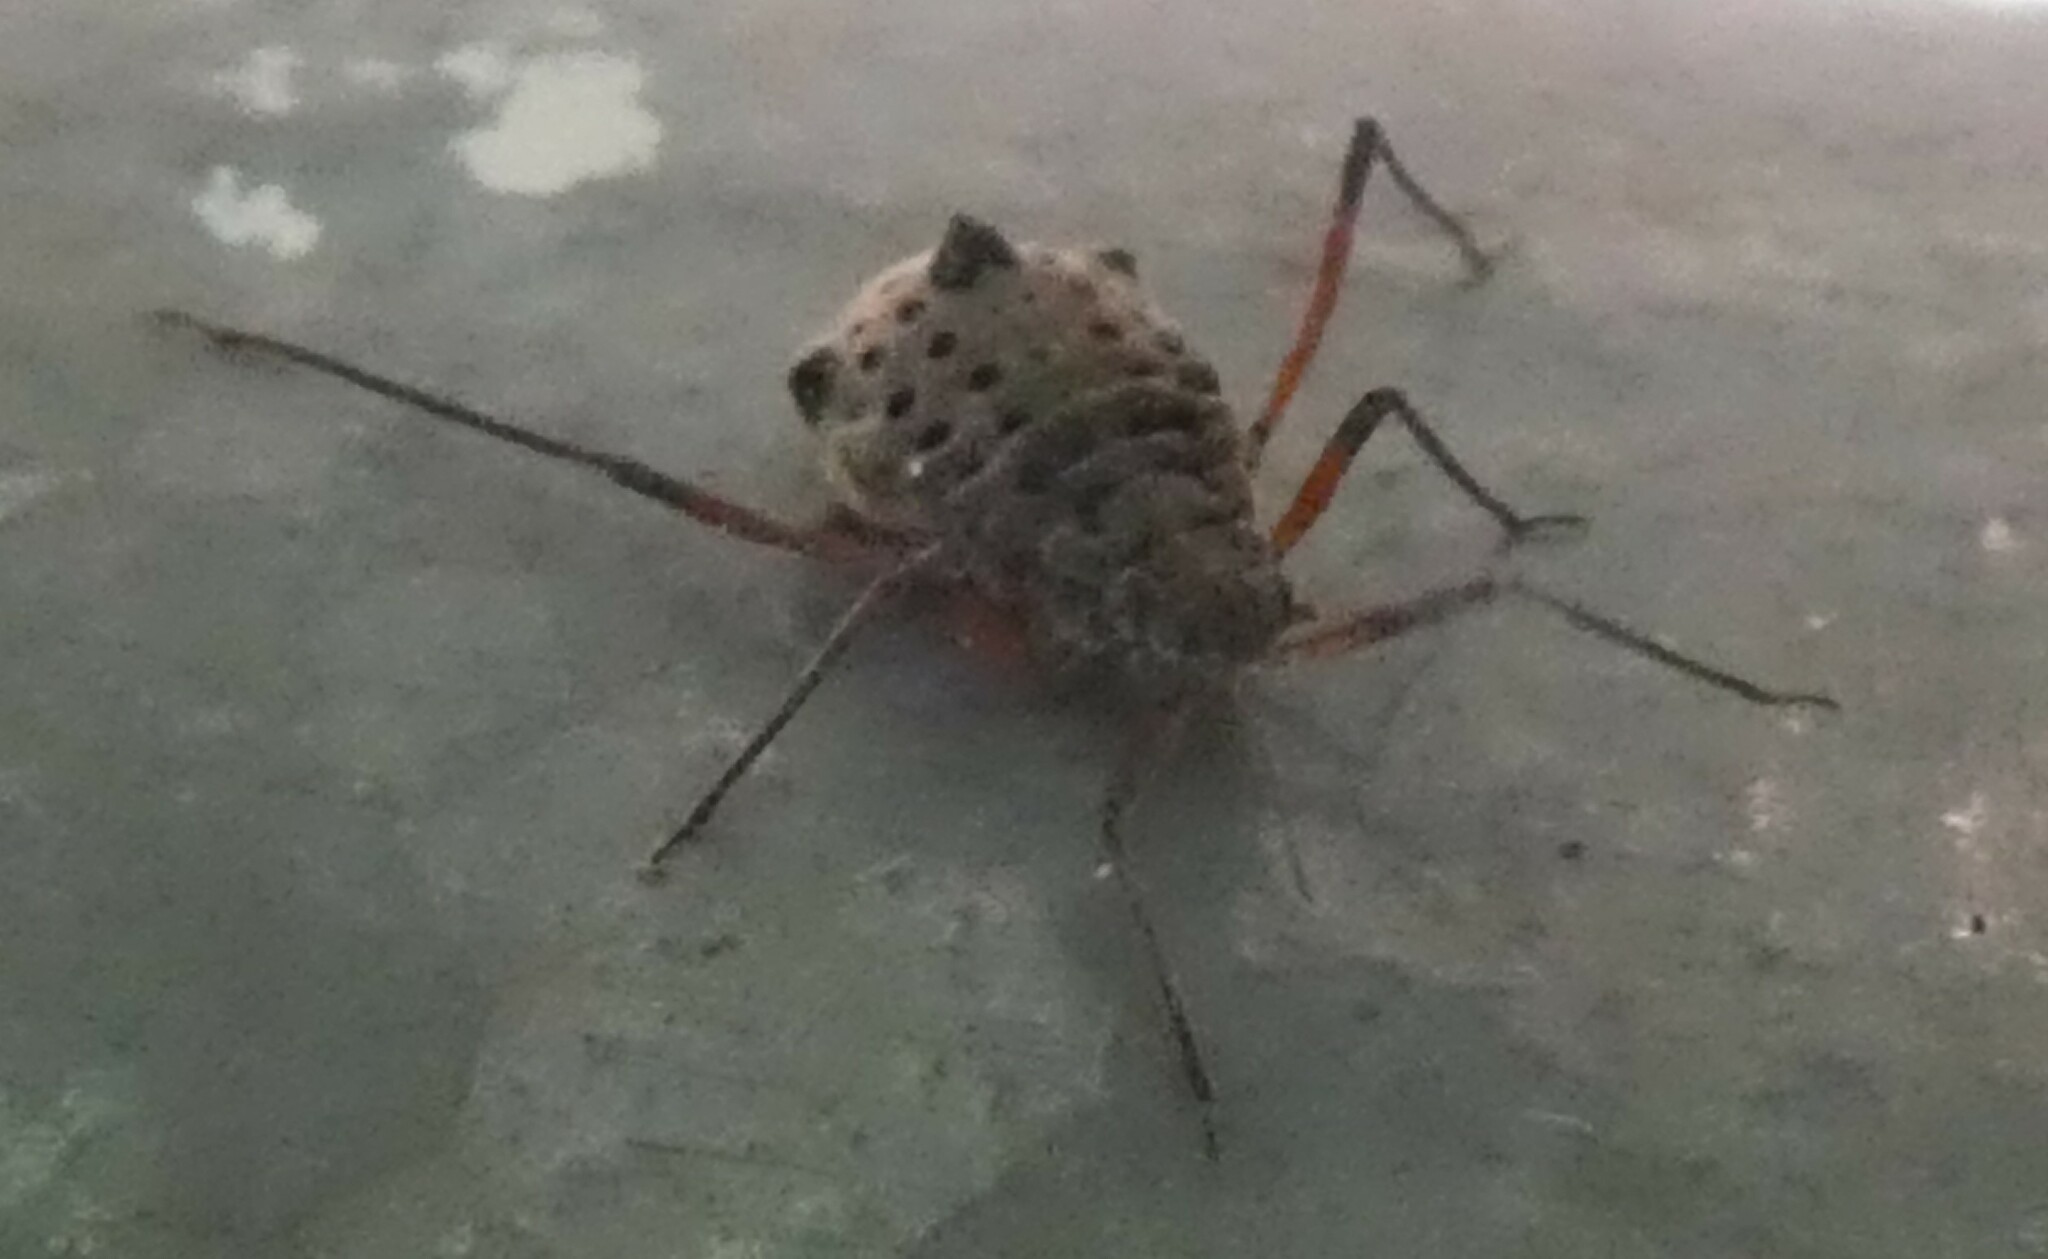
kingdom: Animalia
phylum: Arthropoda
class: Insecta
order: Hemiptera
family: Aphididae
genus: Tuberolachnus
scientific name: Tuberolachnus salignus
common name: Giant willow aphid
